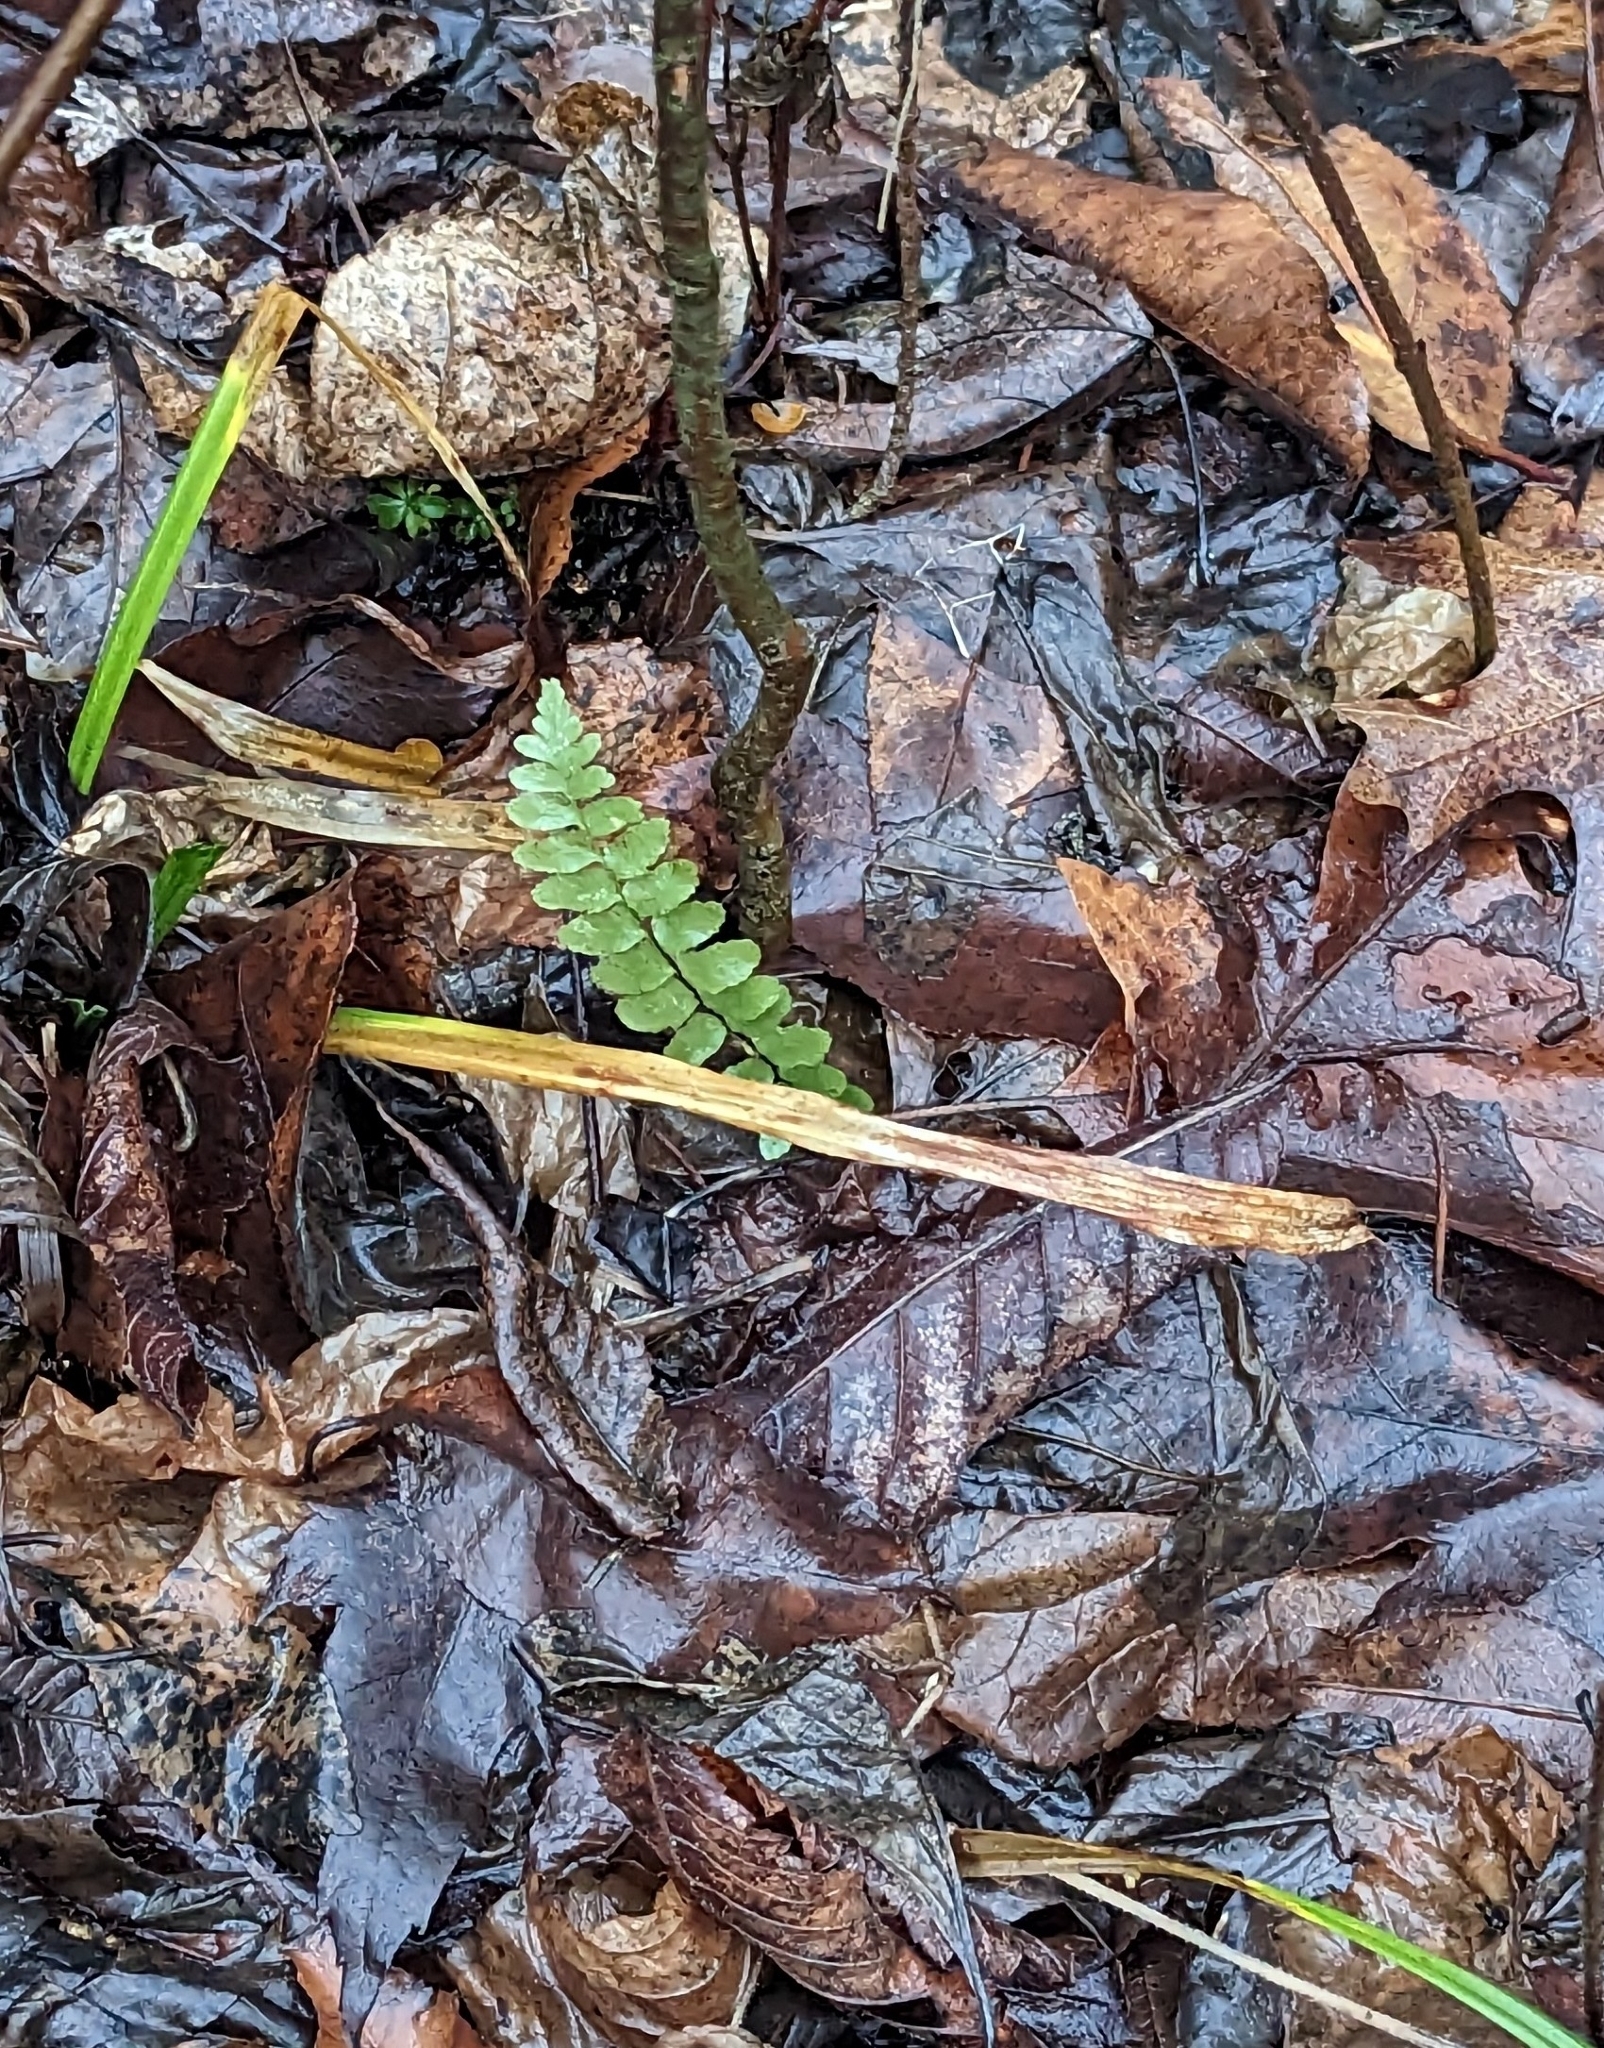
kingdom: Plantae
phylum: Tracheophyta
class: Polypodiopsida
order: Polypodiales
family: Aspleniaceae
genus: Asplenium
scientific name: Asplenium platyneuron
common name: Ebony spleenwort
